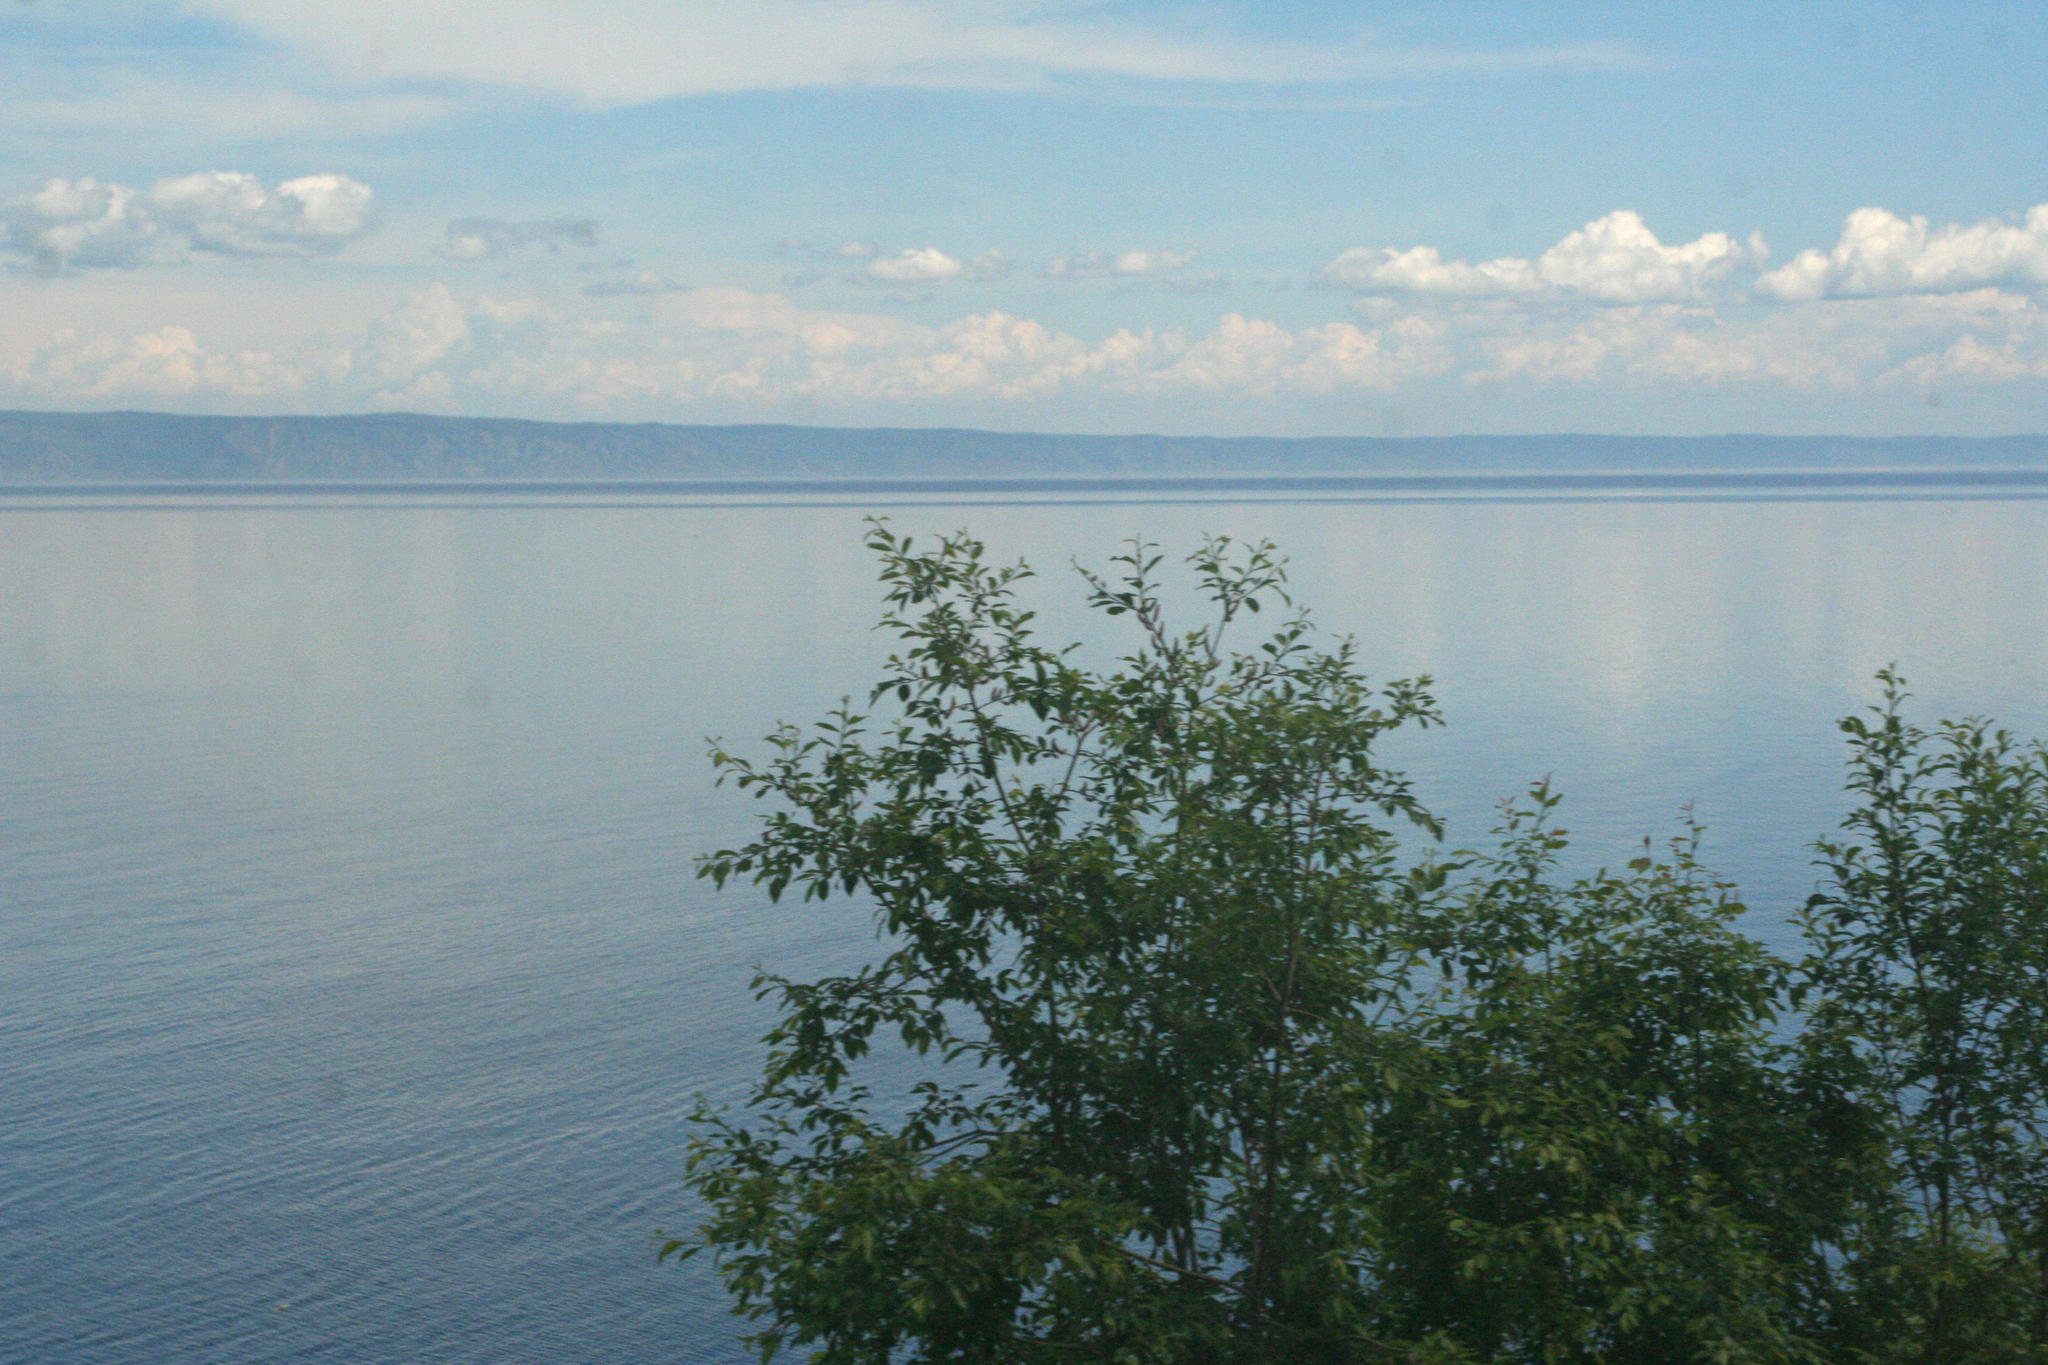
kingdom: Plantae
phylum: Tracheophyta
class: Magnoliopsida
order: Rosales
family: Rosaceae
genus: Prunus
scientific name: Prunus padus
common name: Bird cherry
